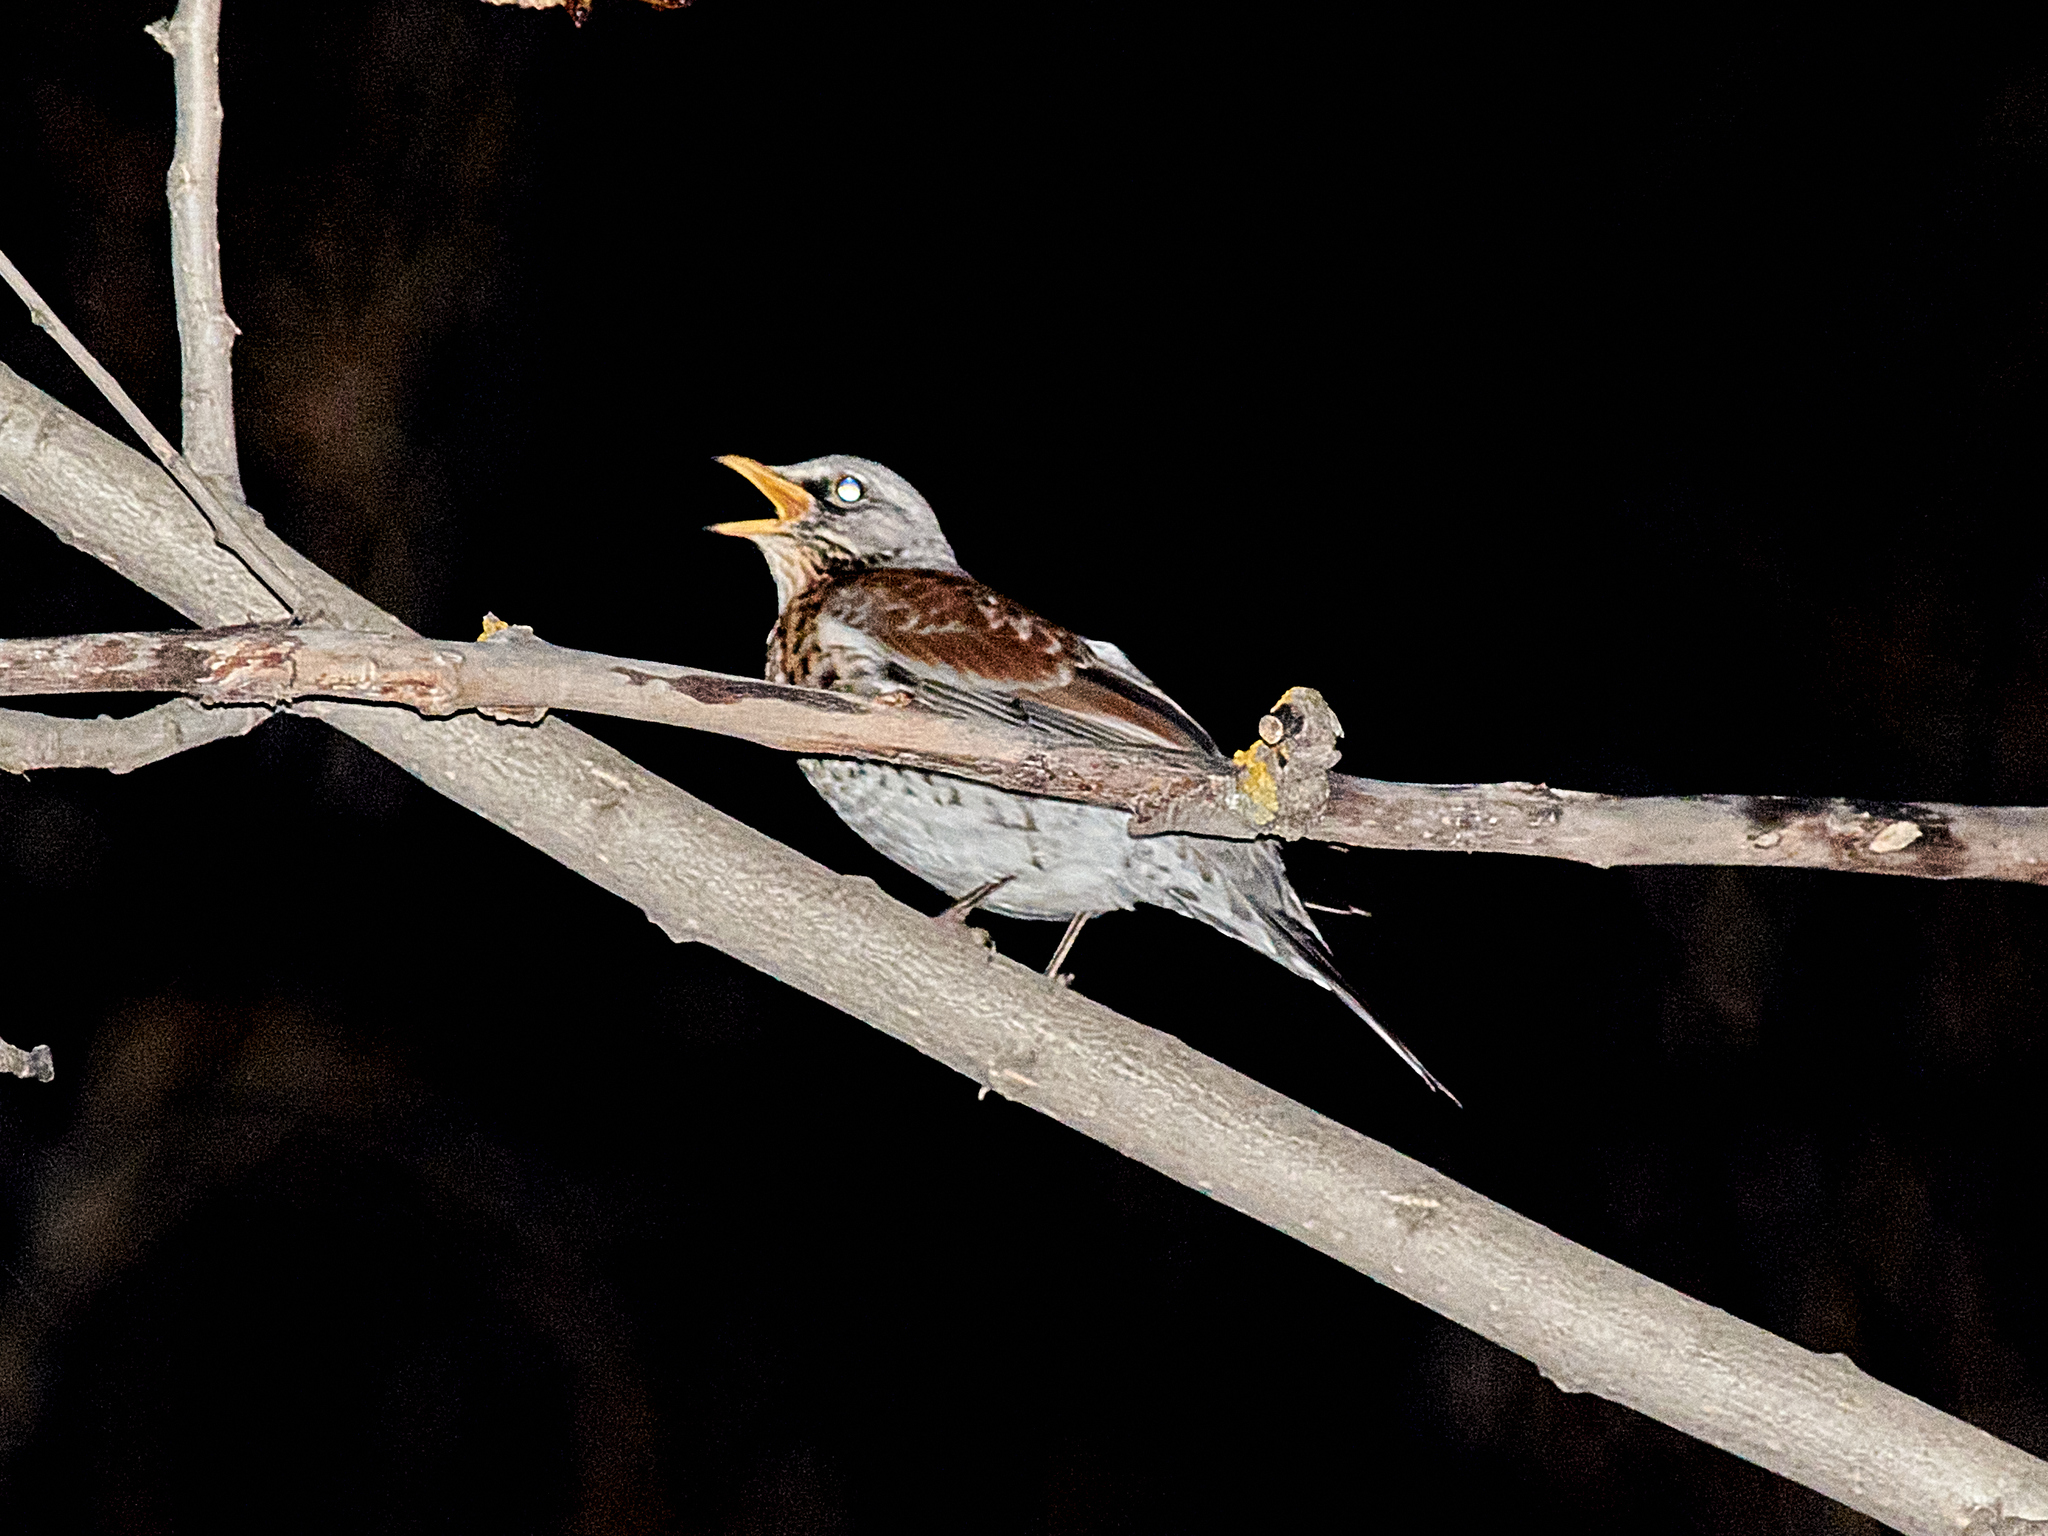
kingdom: Animalia
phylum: Chordata
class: Aves
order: Passeriformes
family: Turdidae
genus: Turdus
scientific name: Turdus pilaris
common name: Fieldfare
